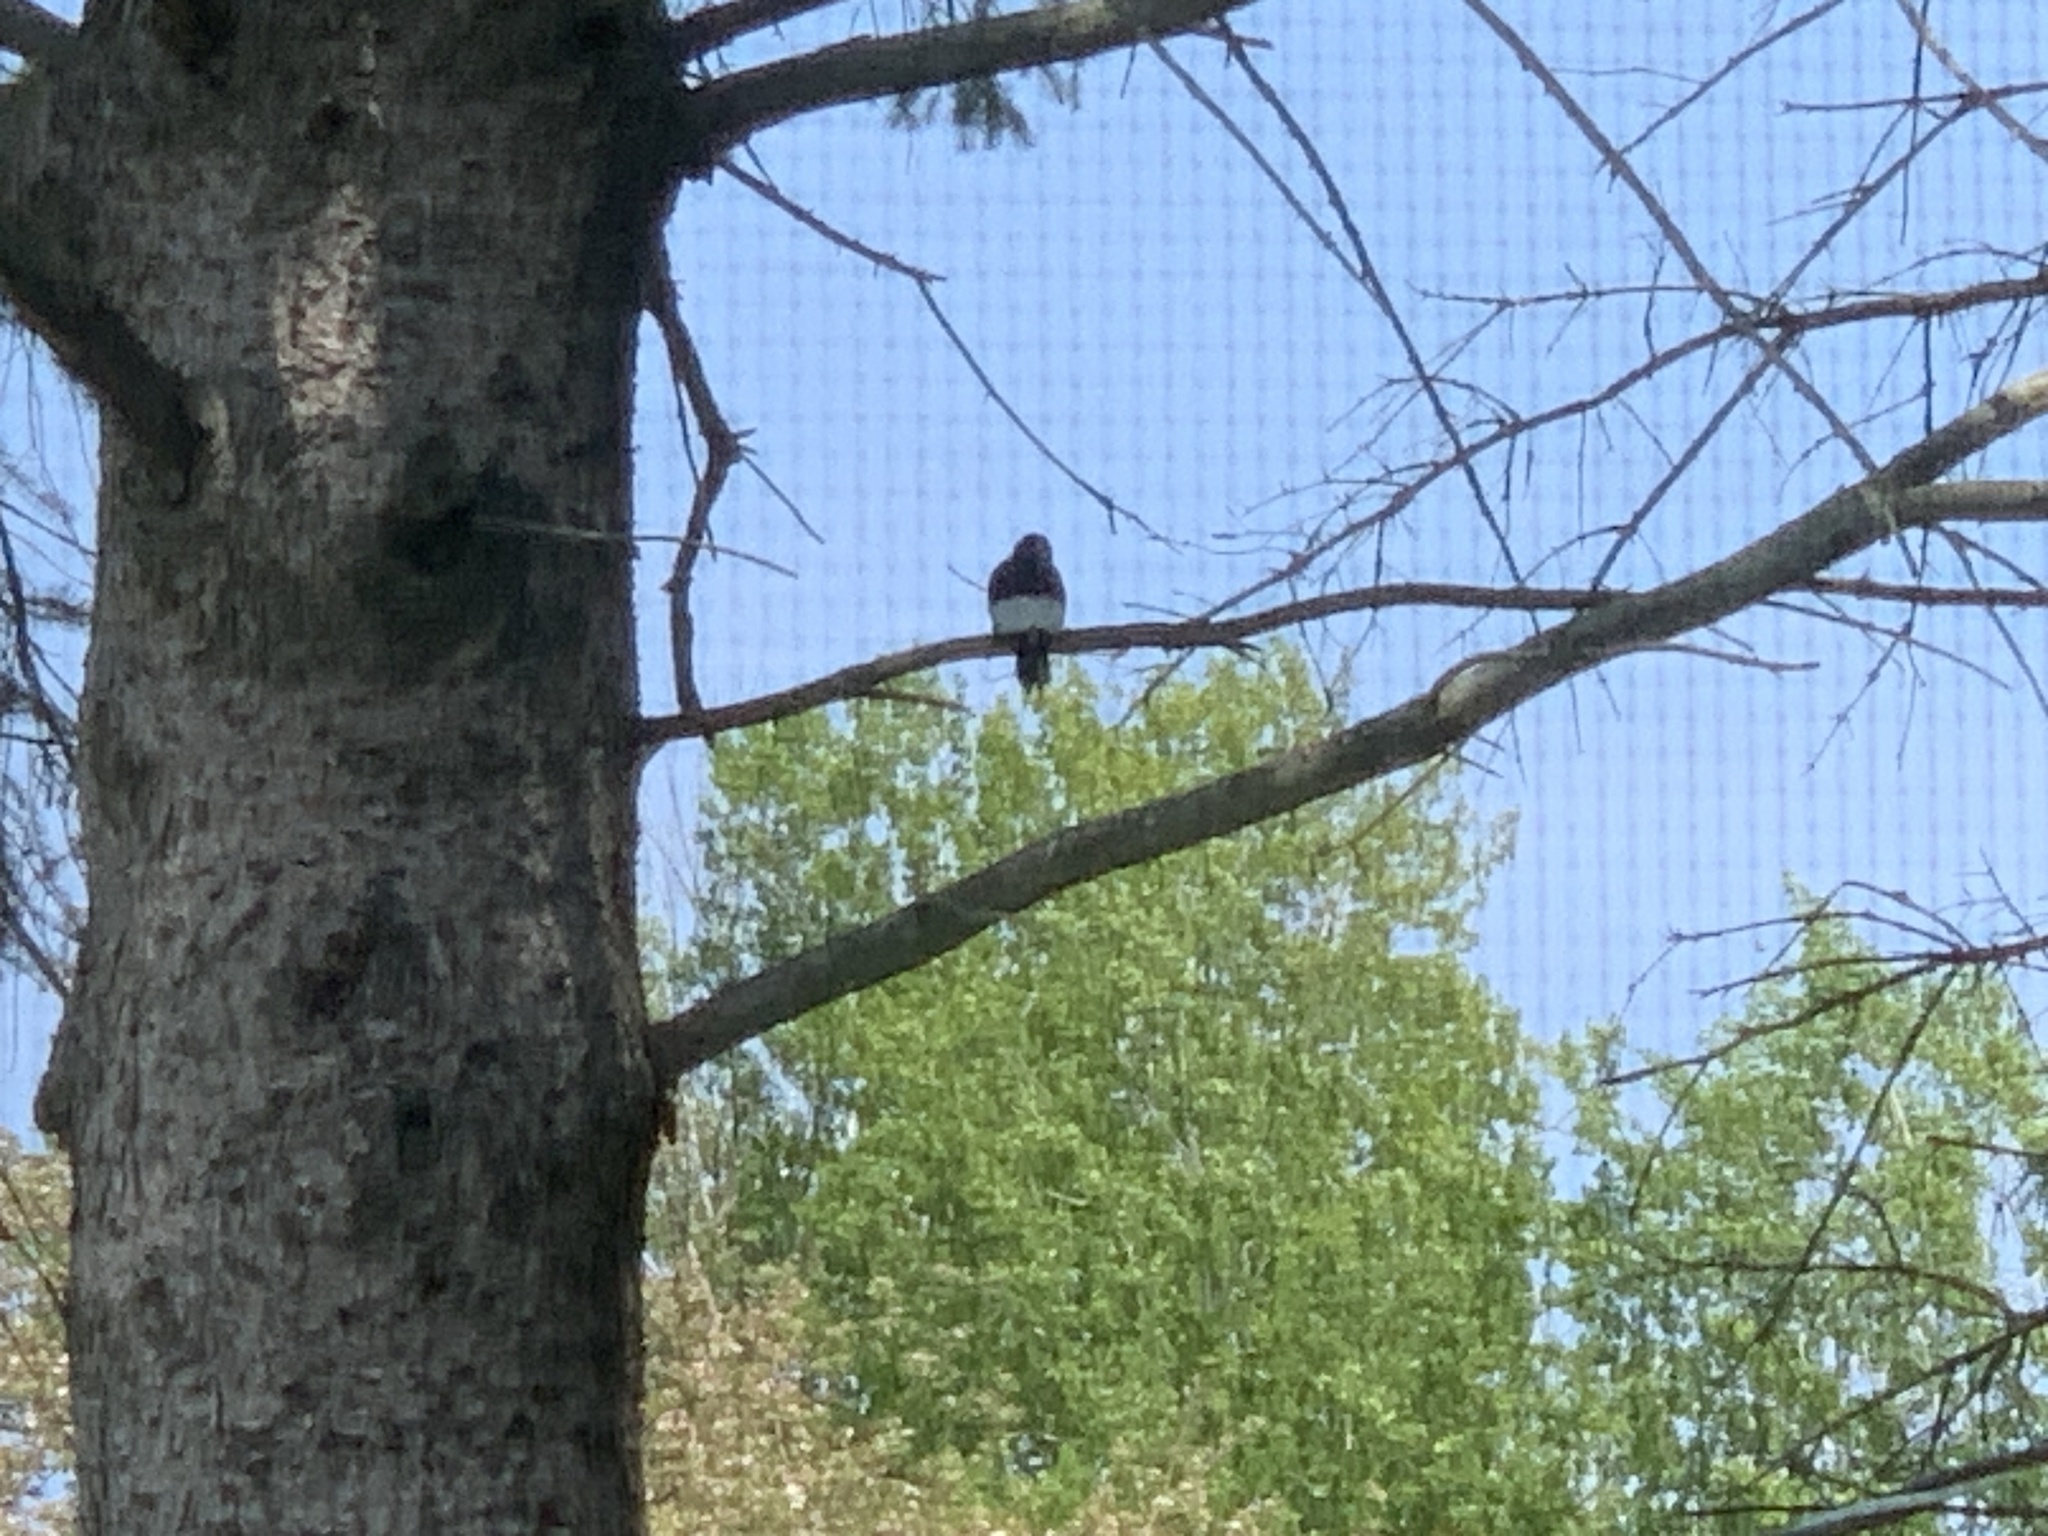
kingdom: Animalia
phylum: Chordata
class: Aves
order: Piciformes
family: Picidae
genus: Melanerpes
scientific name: Melanerpes erythrocephalus
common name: Red-headed woodpecker
